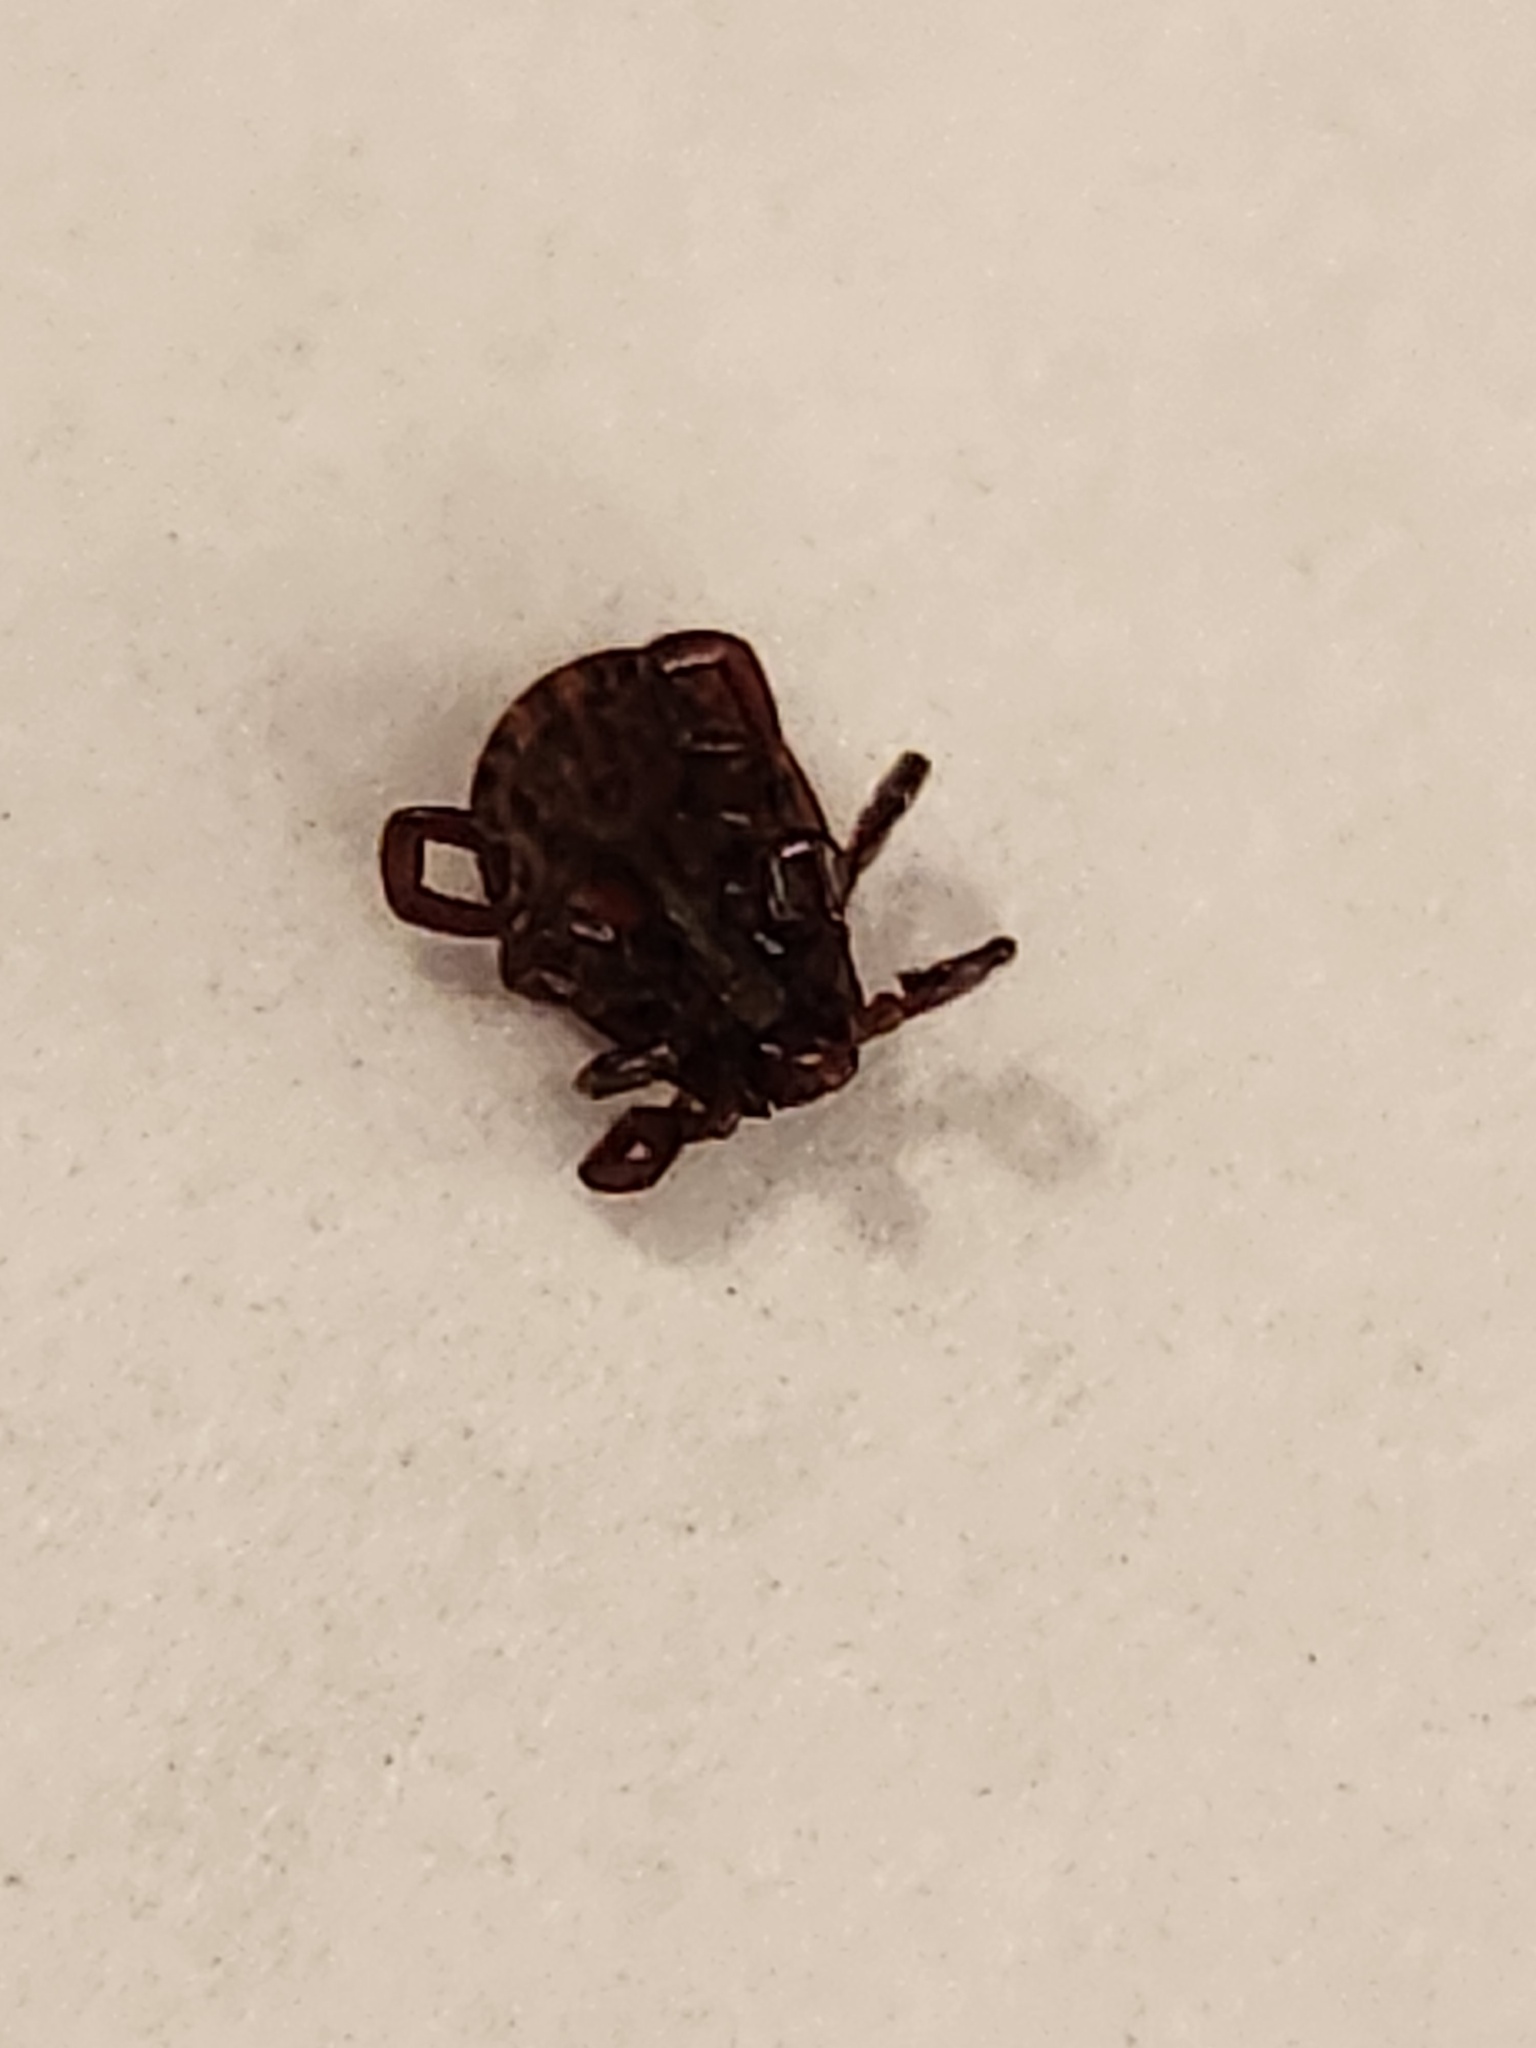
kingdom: Animalia
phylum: Arthropoda
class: Arachnida
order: Ixodida
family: Ixodidae
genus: Dermacentor
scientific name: Dermacentor variabilis
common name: American dog tick
